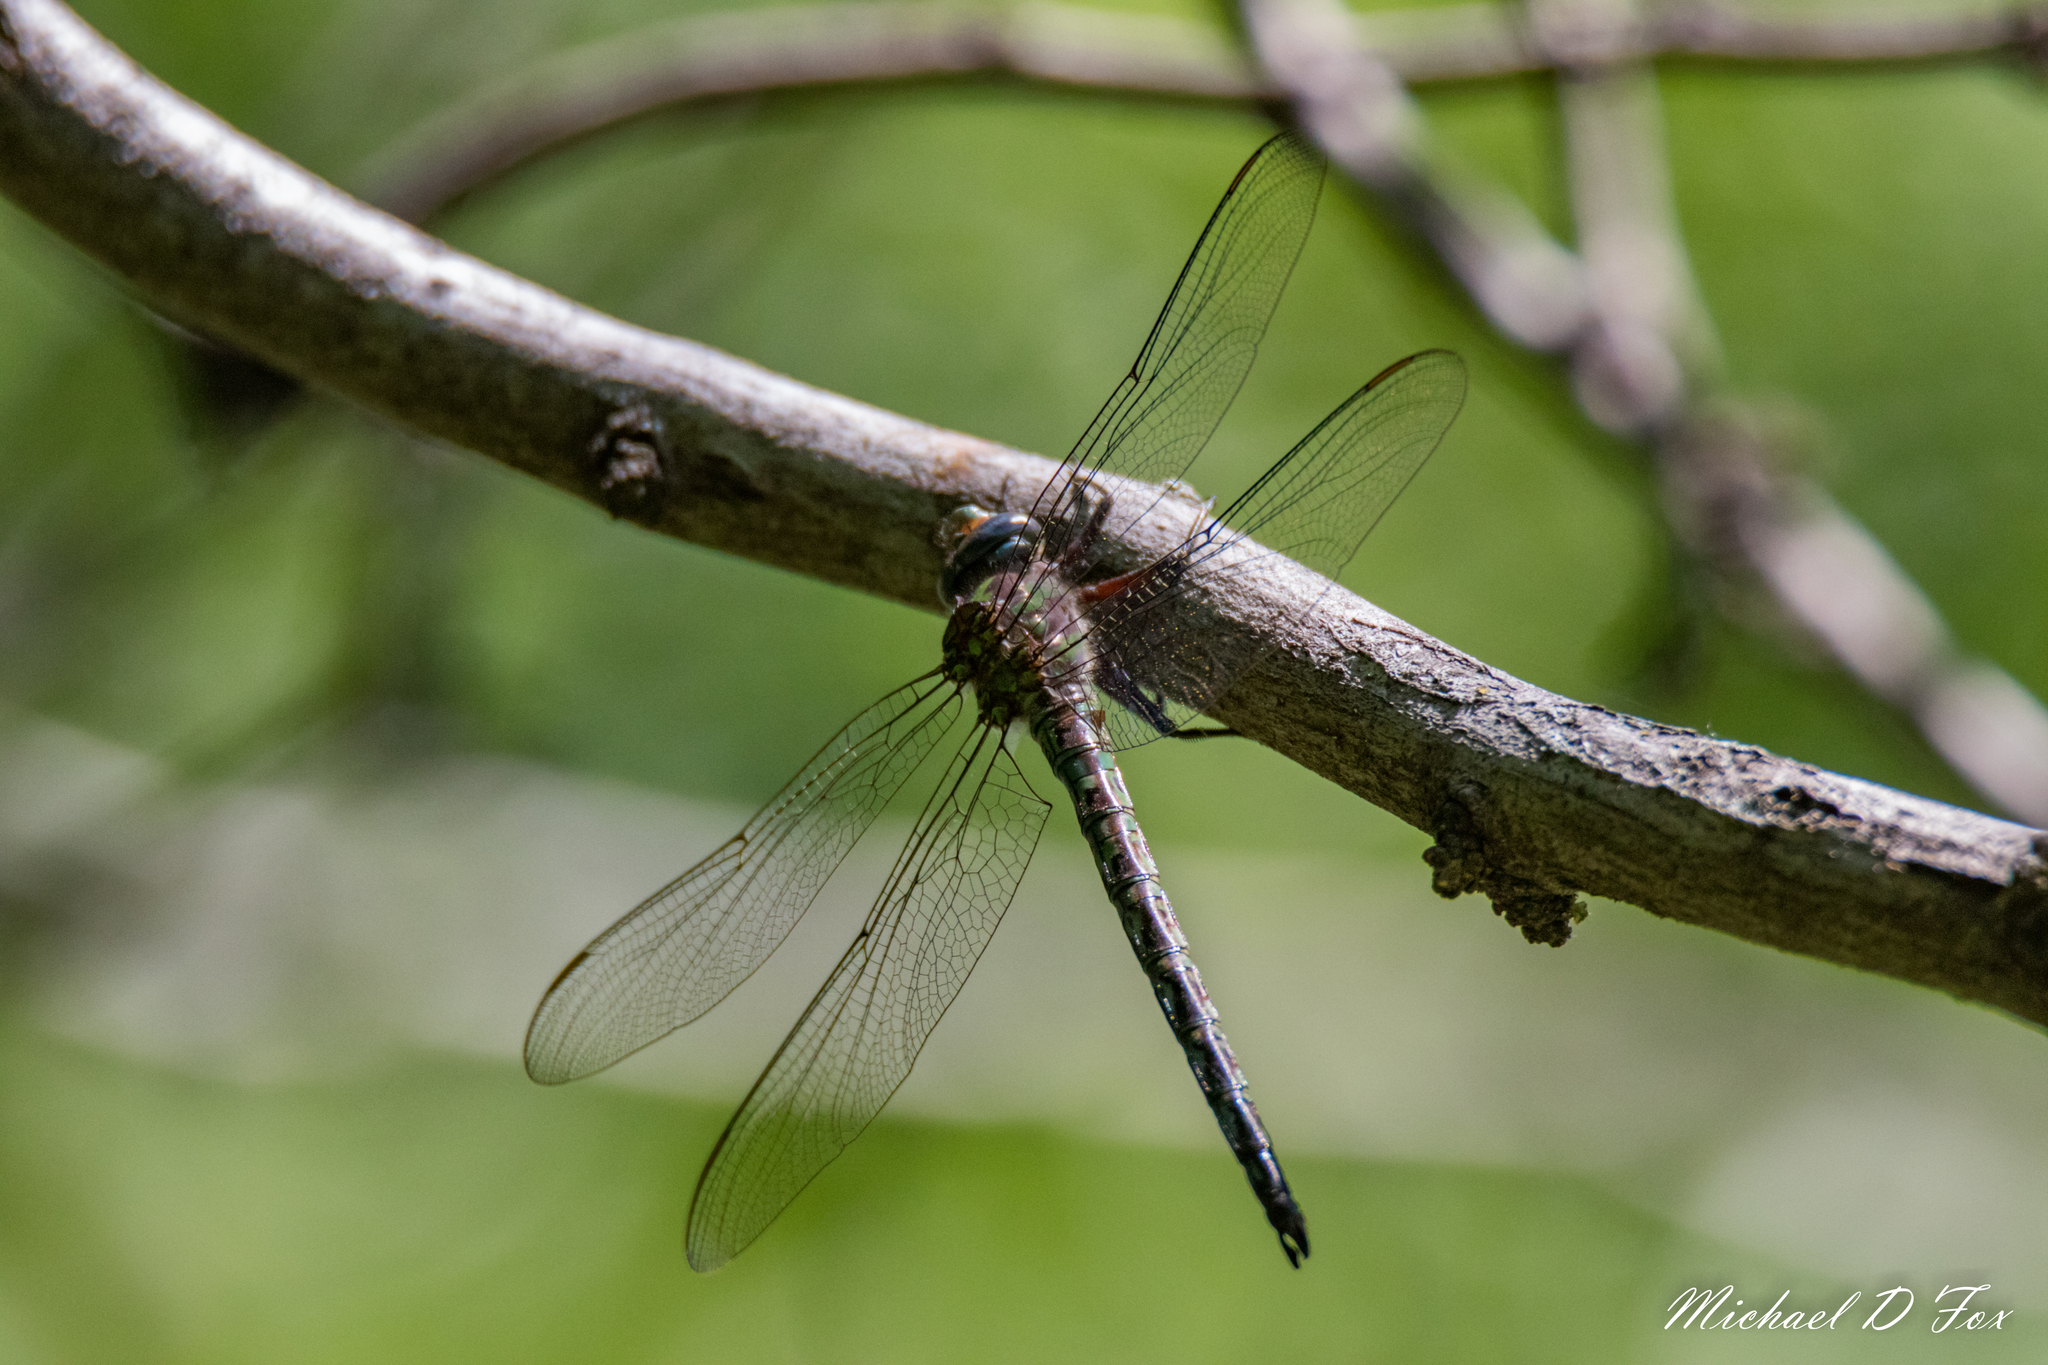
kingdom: Animalia
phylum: Arthropoda
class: Insecta
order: Odonata
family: Aeshnidae
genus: Nasiaeschna
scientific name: Nasiaeschna pentacantha
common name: Cyrano darner
